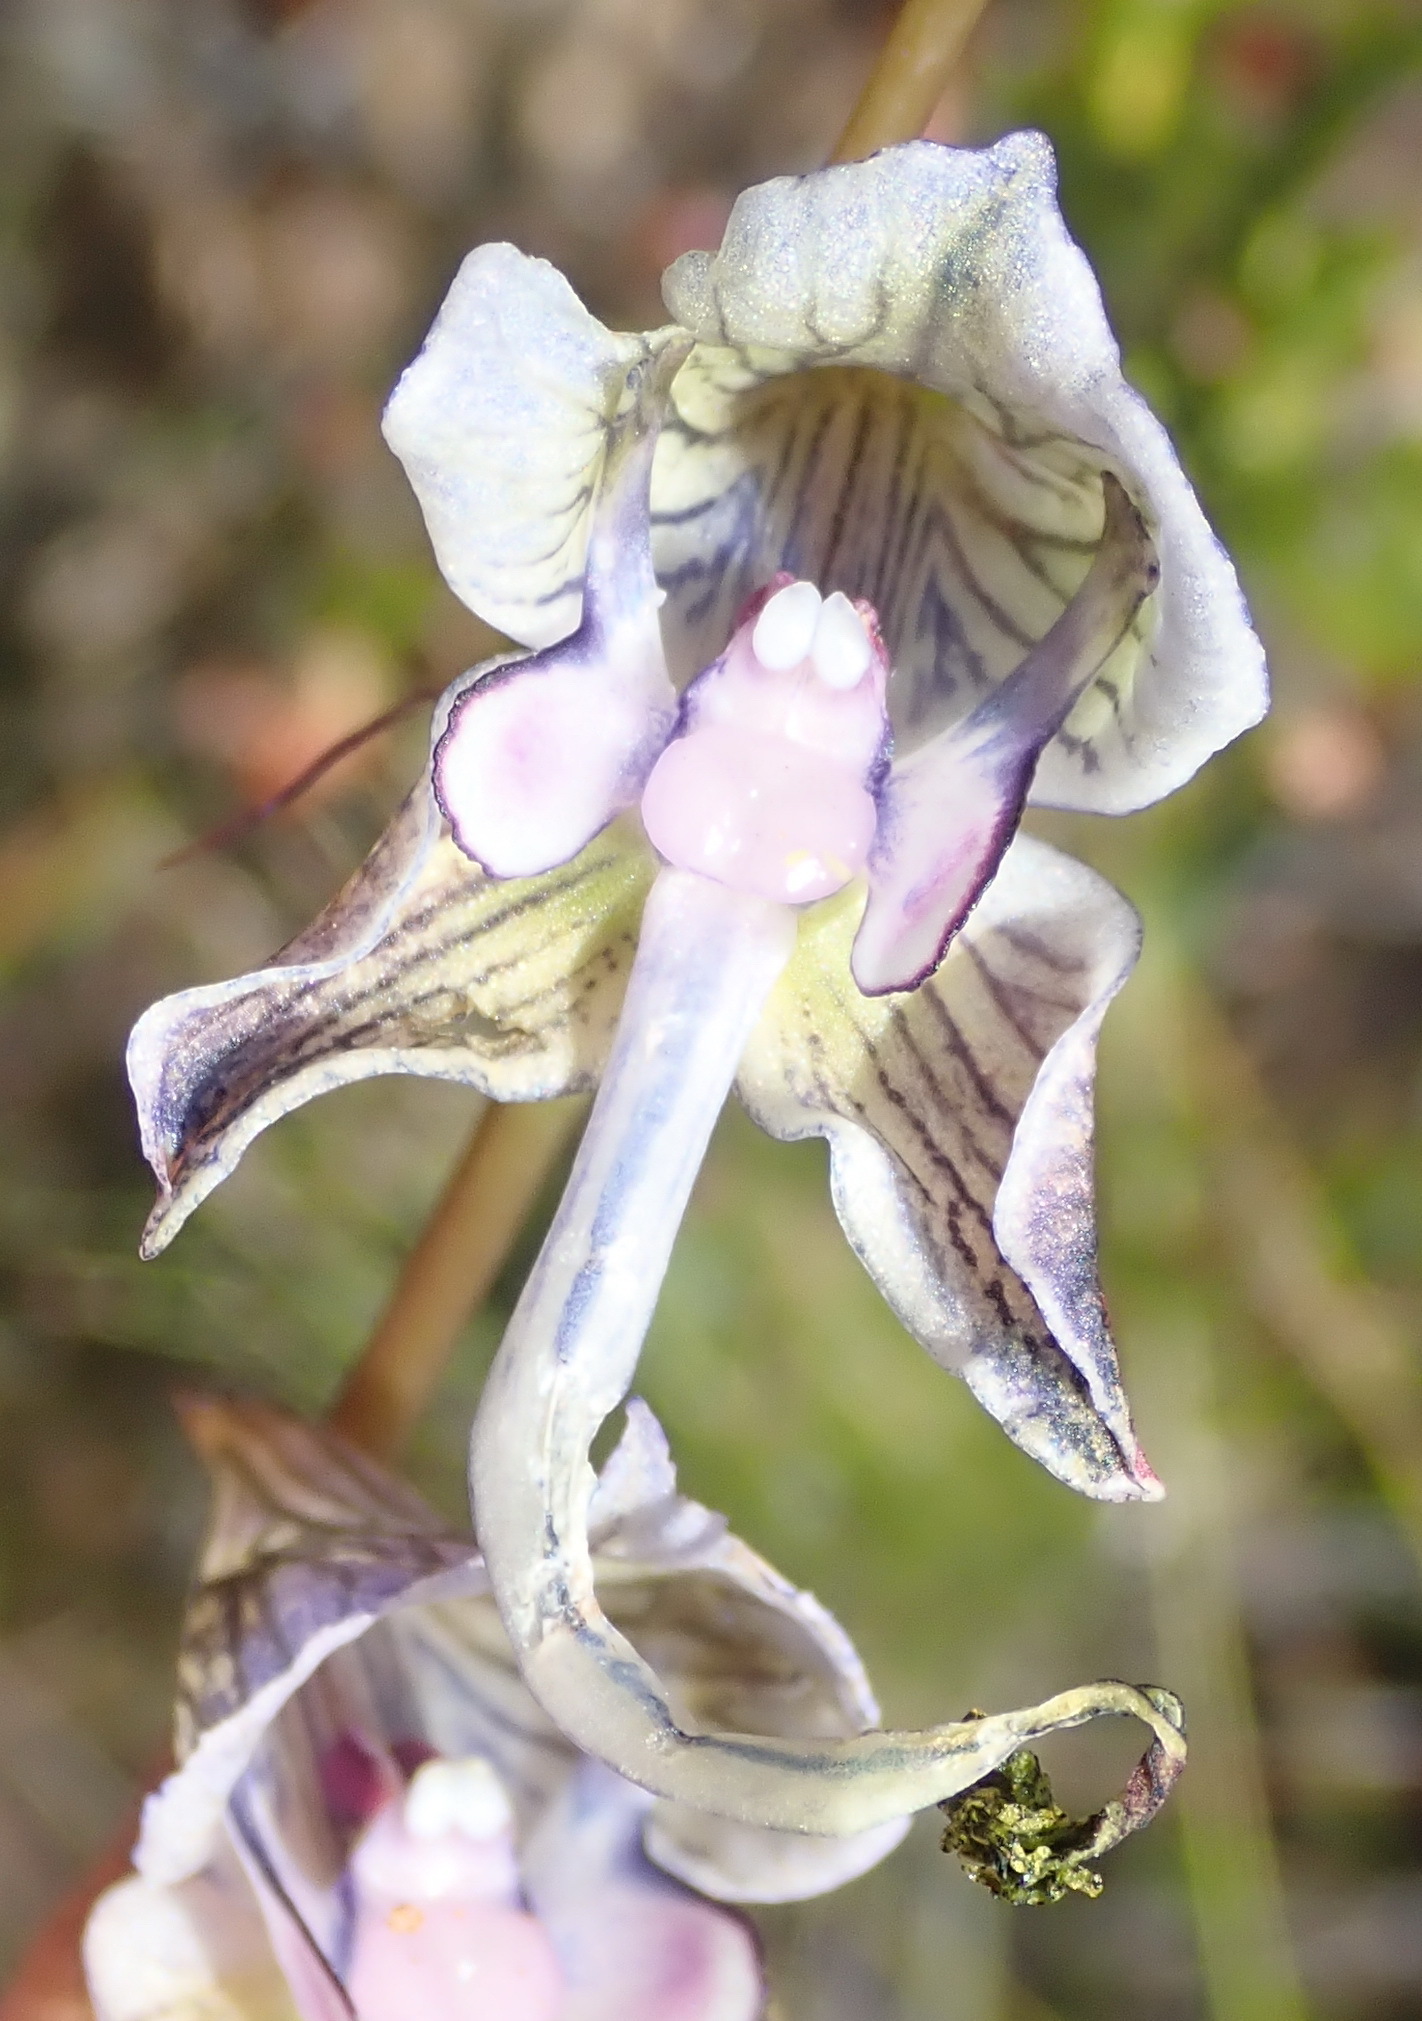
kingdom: Plantae
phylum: Tracheophyta
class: Liliopsida
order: Asparagales
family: Orchidaceae
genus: Disa
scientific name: Disa multifida
